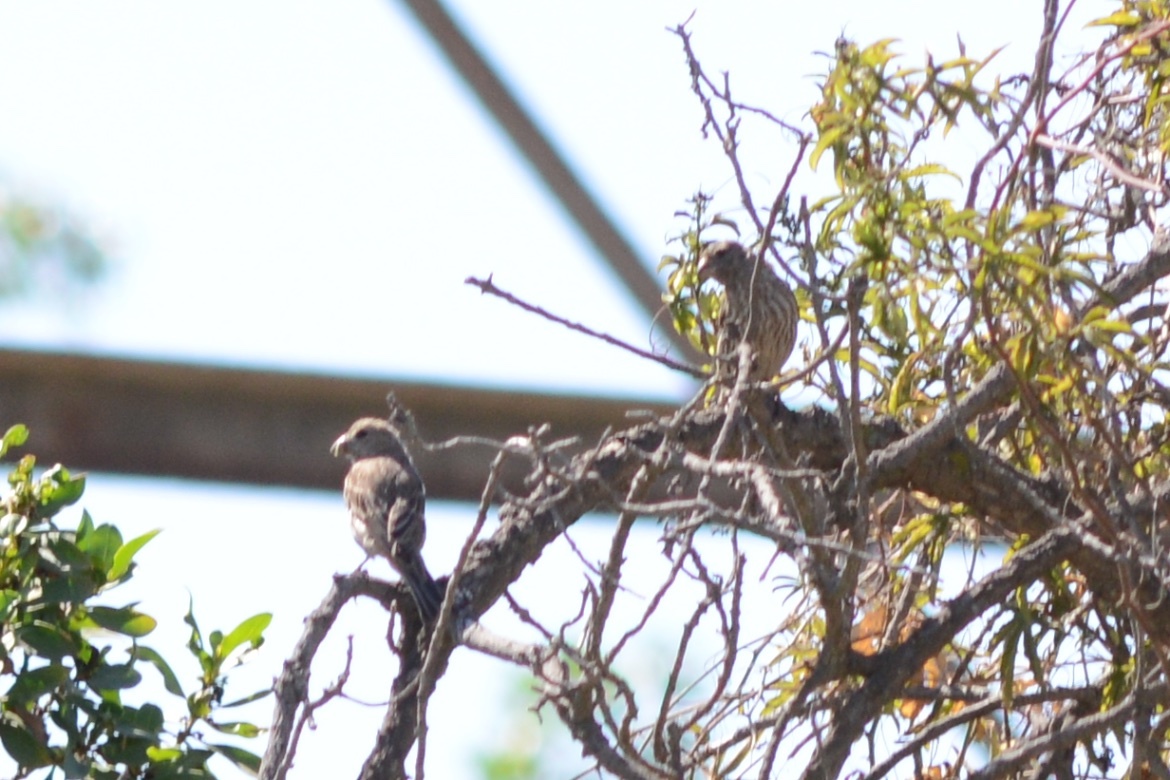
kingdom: Animalia
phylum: Chordata
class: Aves
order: Passeriformes
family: Fringillidae
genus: Haemorhous
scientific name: Haemorhous mexicanus
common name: House finch
